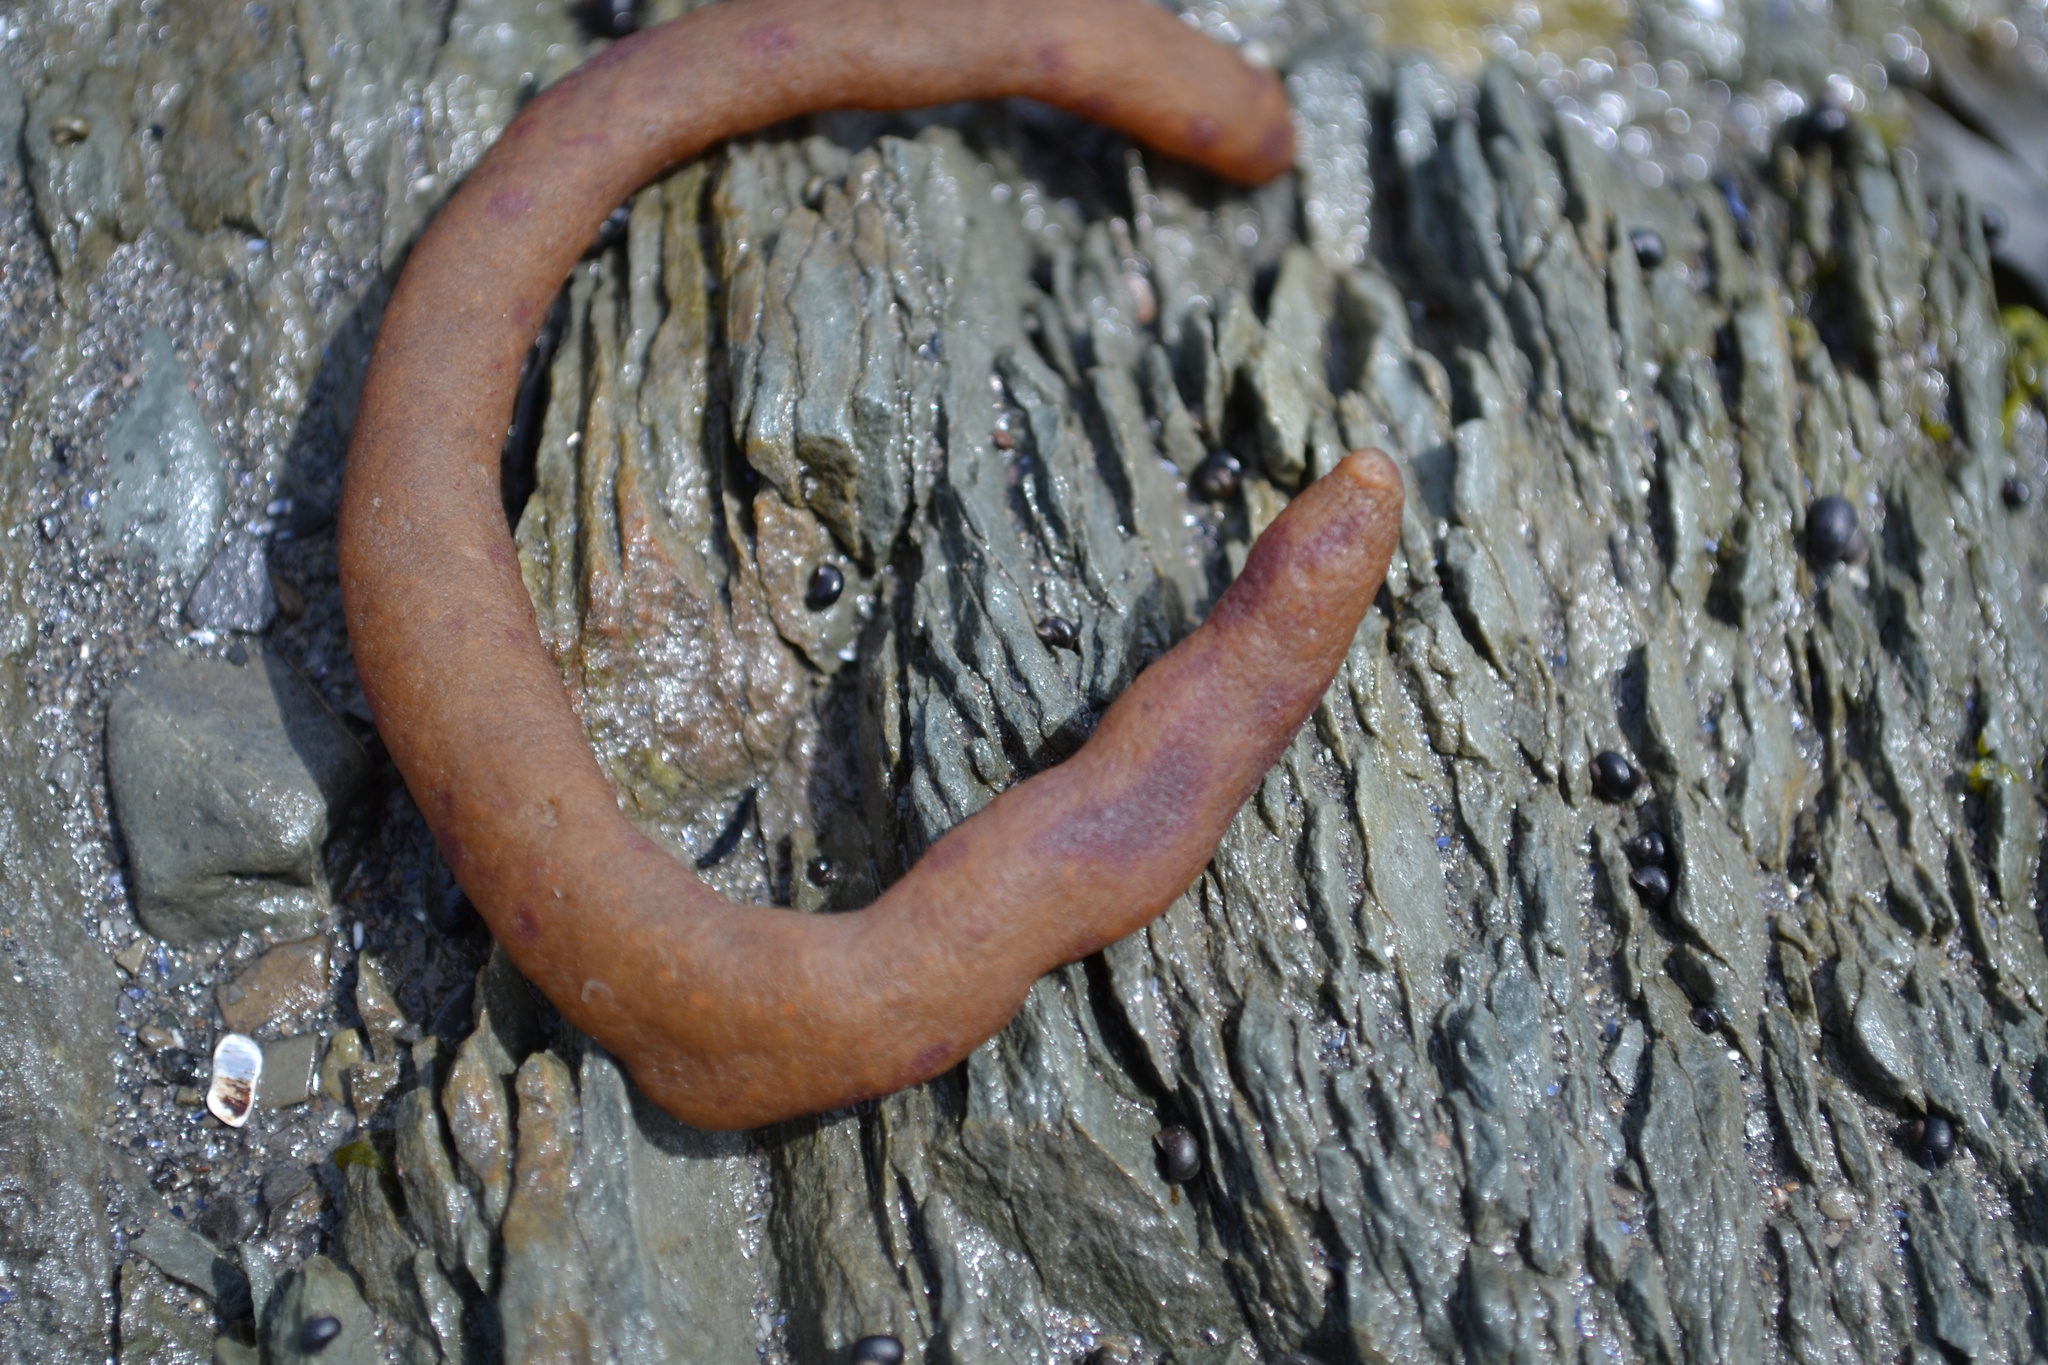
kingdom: Animalia
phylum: Bryozoa
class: Gymnolaemata
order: Ctenostomatida
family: Alcyonidiidae
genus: Alcyonidium
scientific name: Alcyonidium pachydermatum
